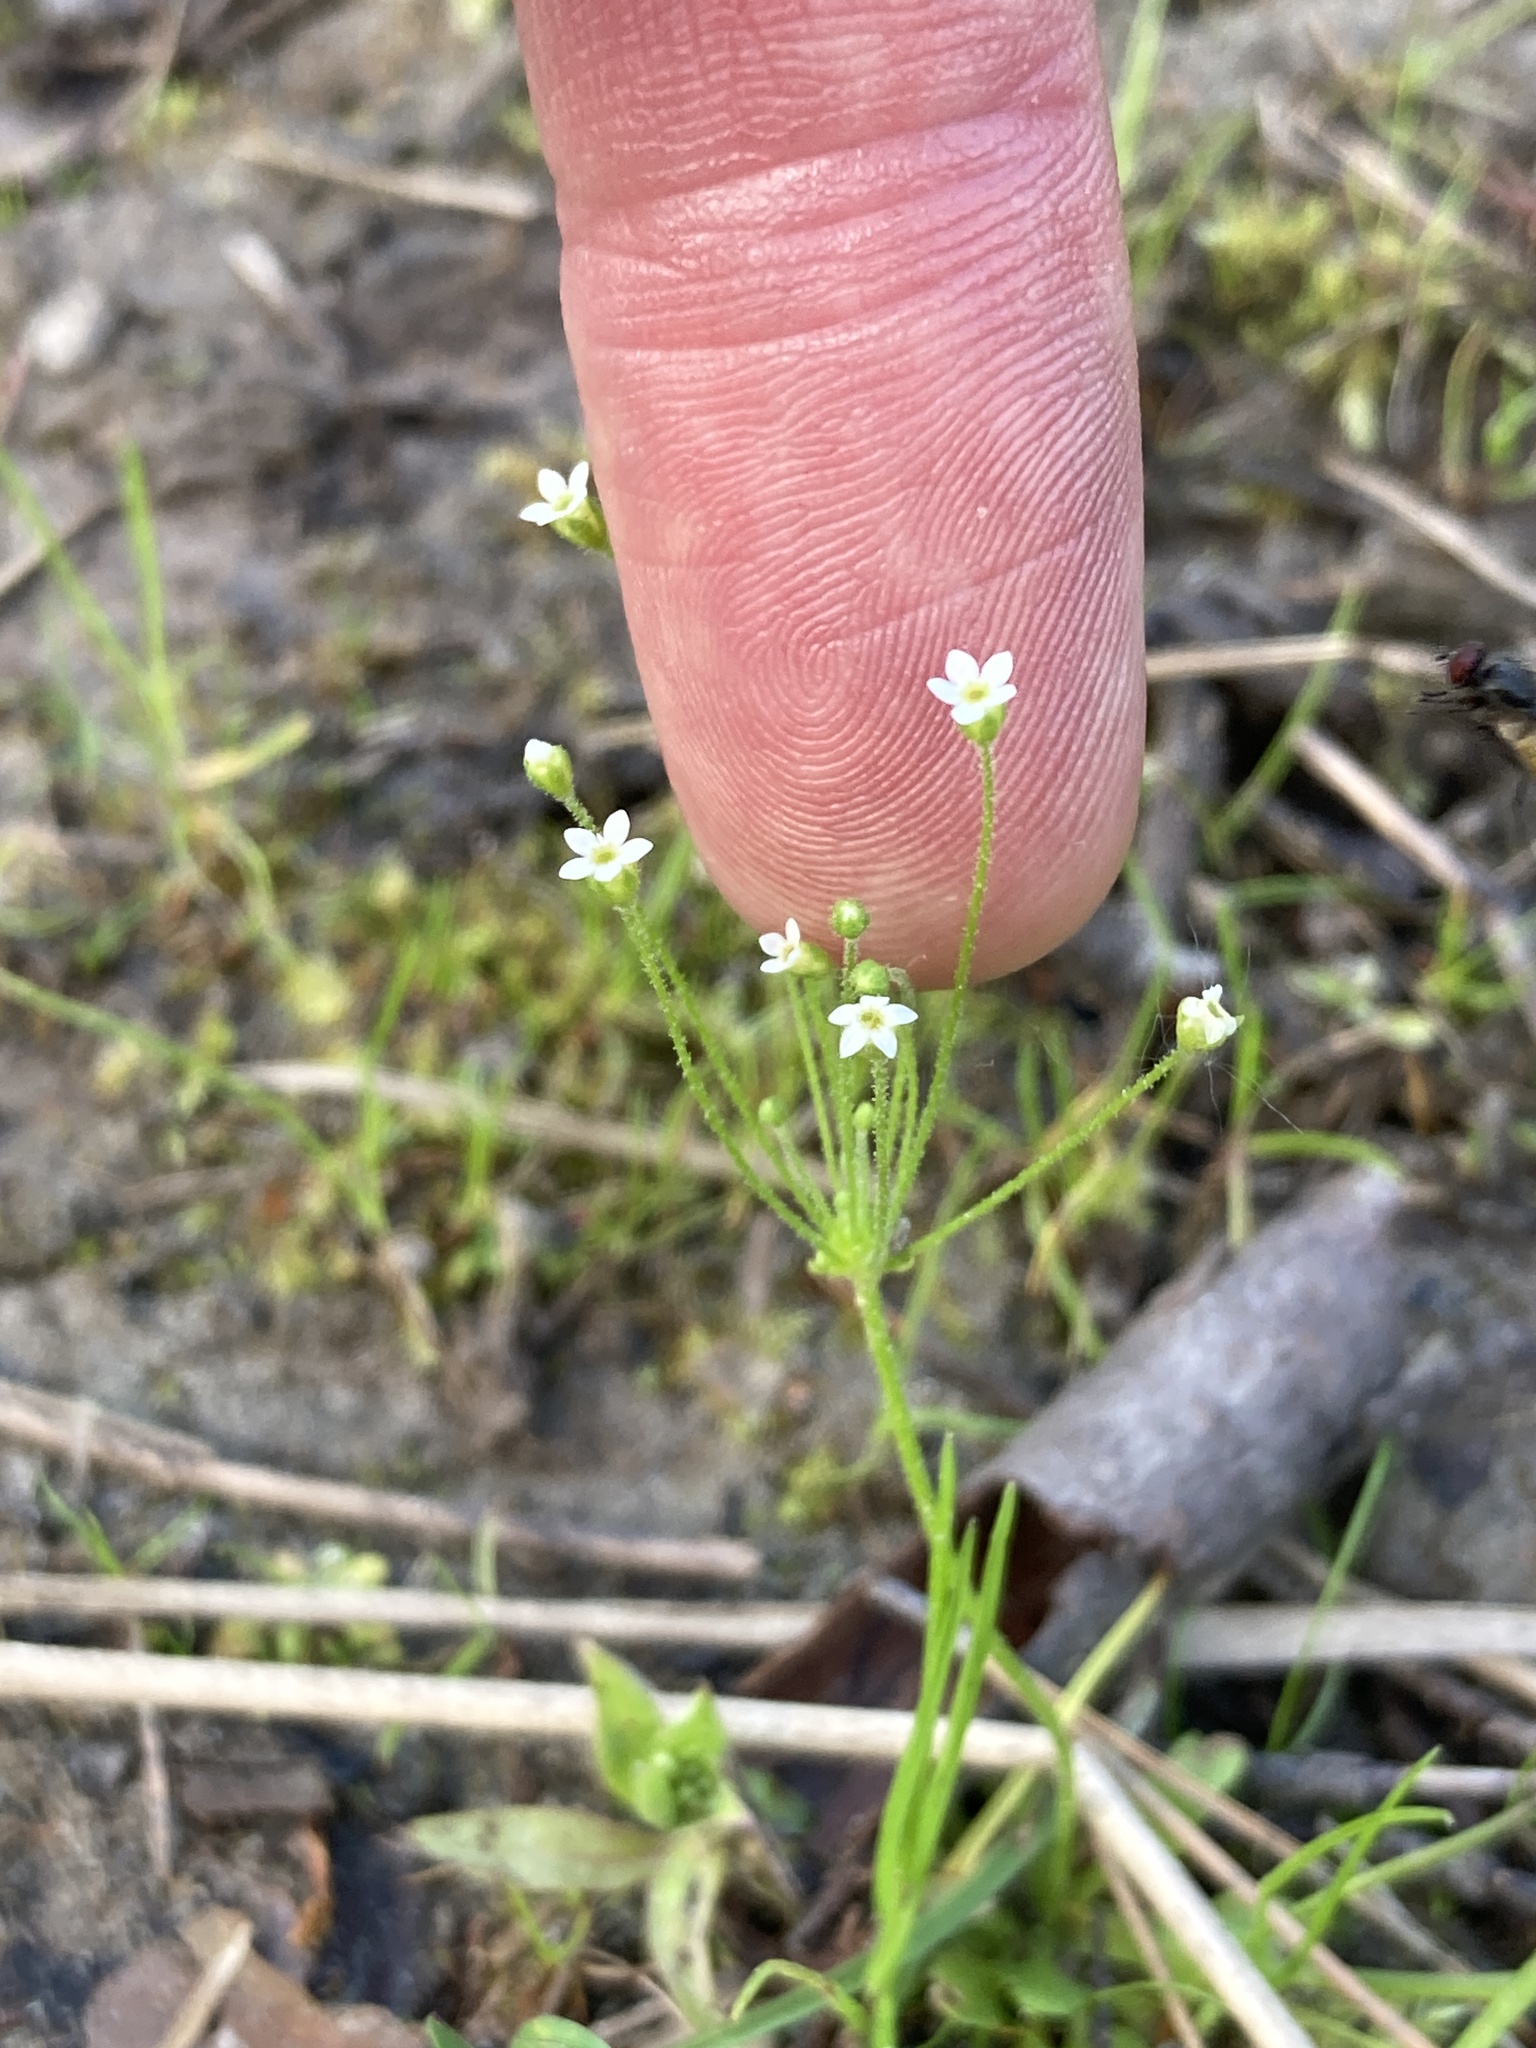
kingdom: Plantae
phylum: Tracheophyta
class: Magnoliopsida
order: Ericales
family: Primulaceae
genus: Androsace
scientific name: Androsace filiformis
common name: Filiform rock jasmine
